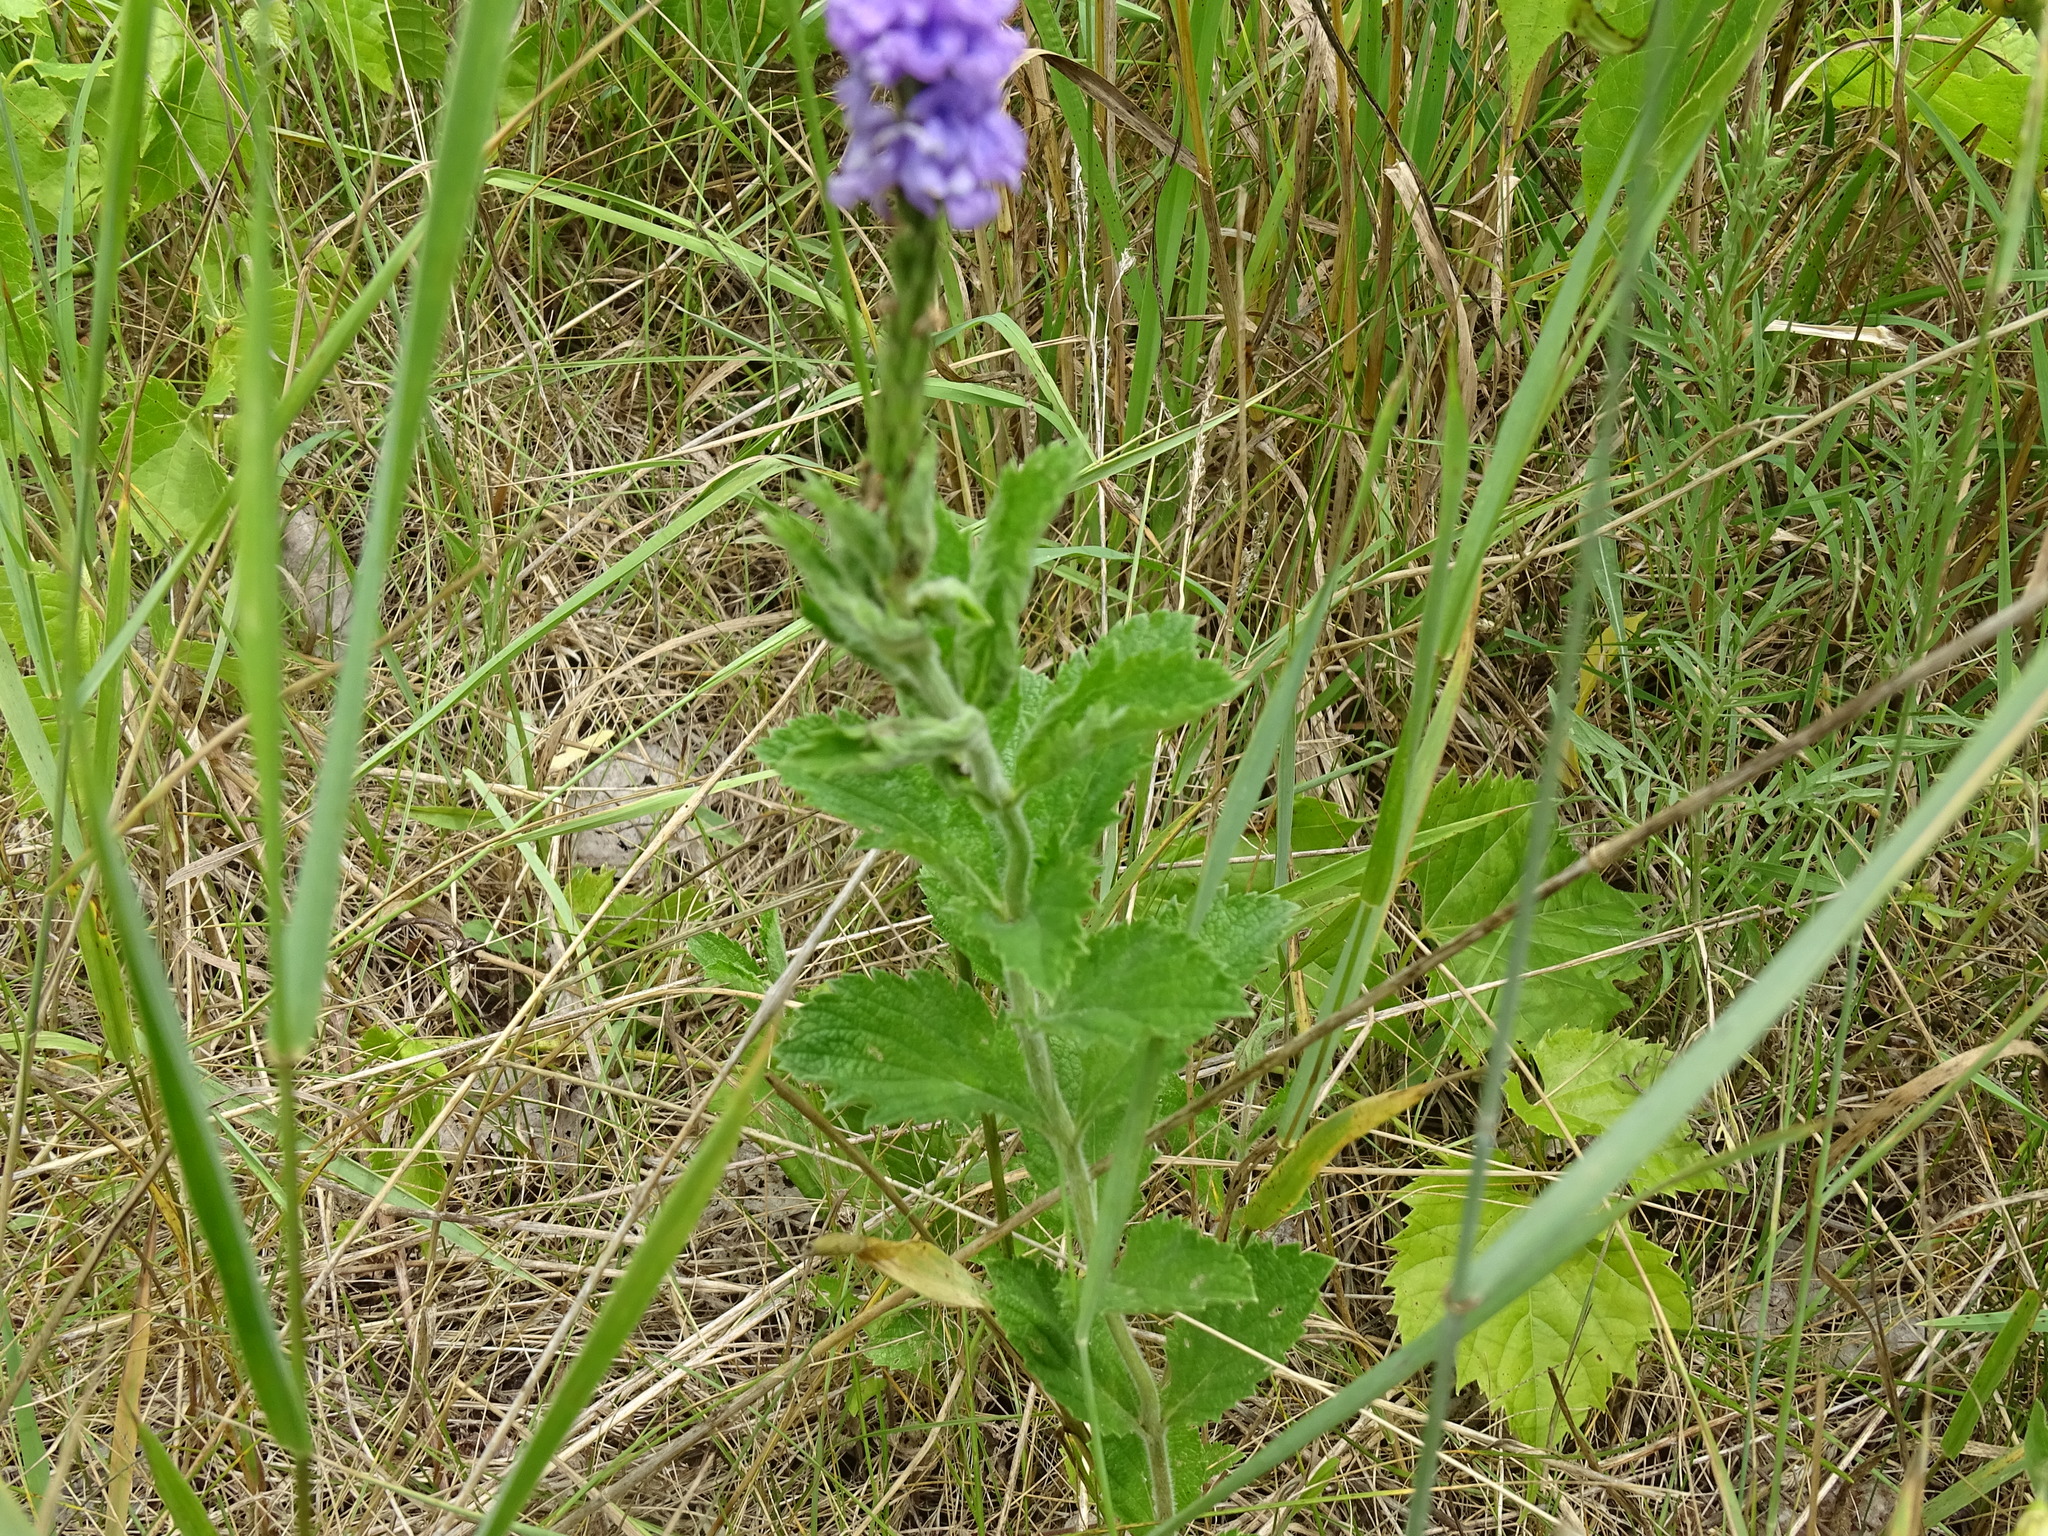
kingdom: Plantae
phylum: Tracheophyta
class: Magnoliopsida
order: Lamiales
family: Verbenaceae
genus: Verbena
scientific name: Verbena stricta
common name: Hoary vervain
